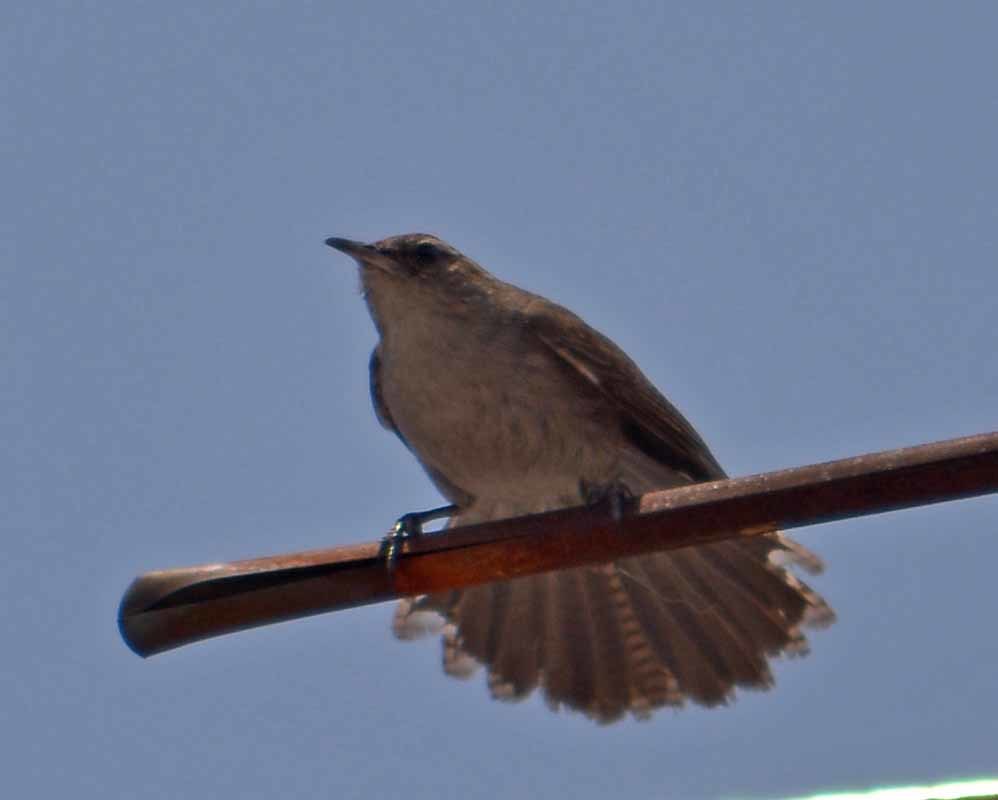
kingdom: Animalia
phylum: Chordata
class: Aves
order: Passeriformes
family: Troglodytidae
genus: Thryomanes
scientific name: Thryomanes bewickii
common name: Bewick's wren
